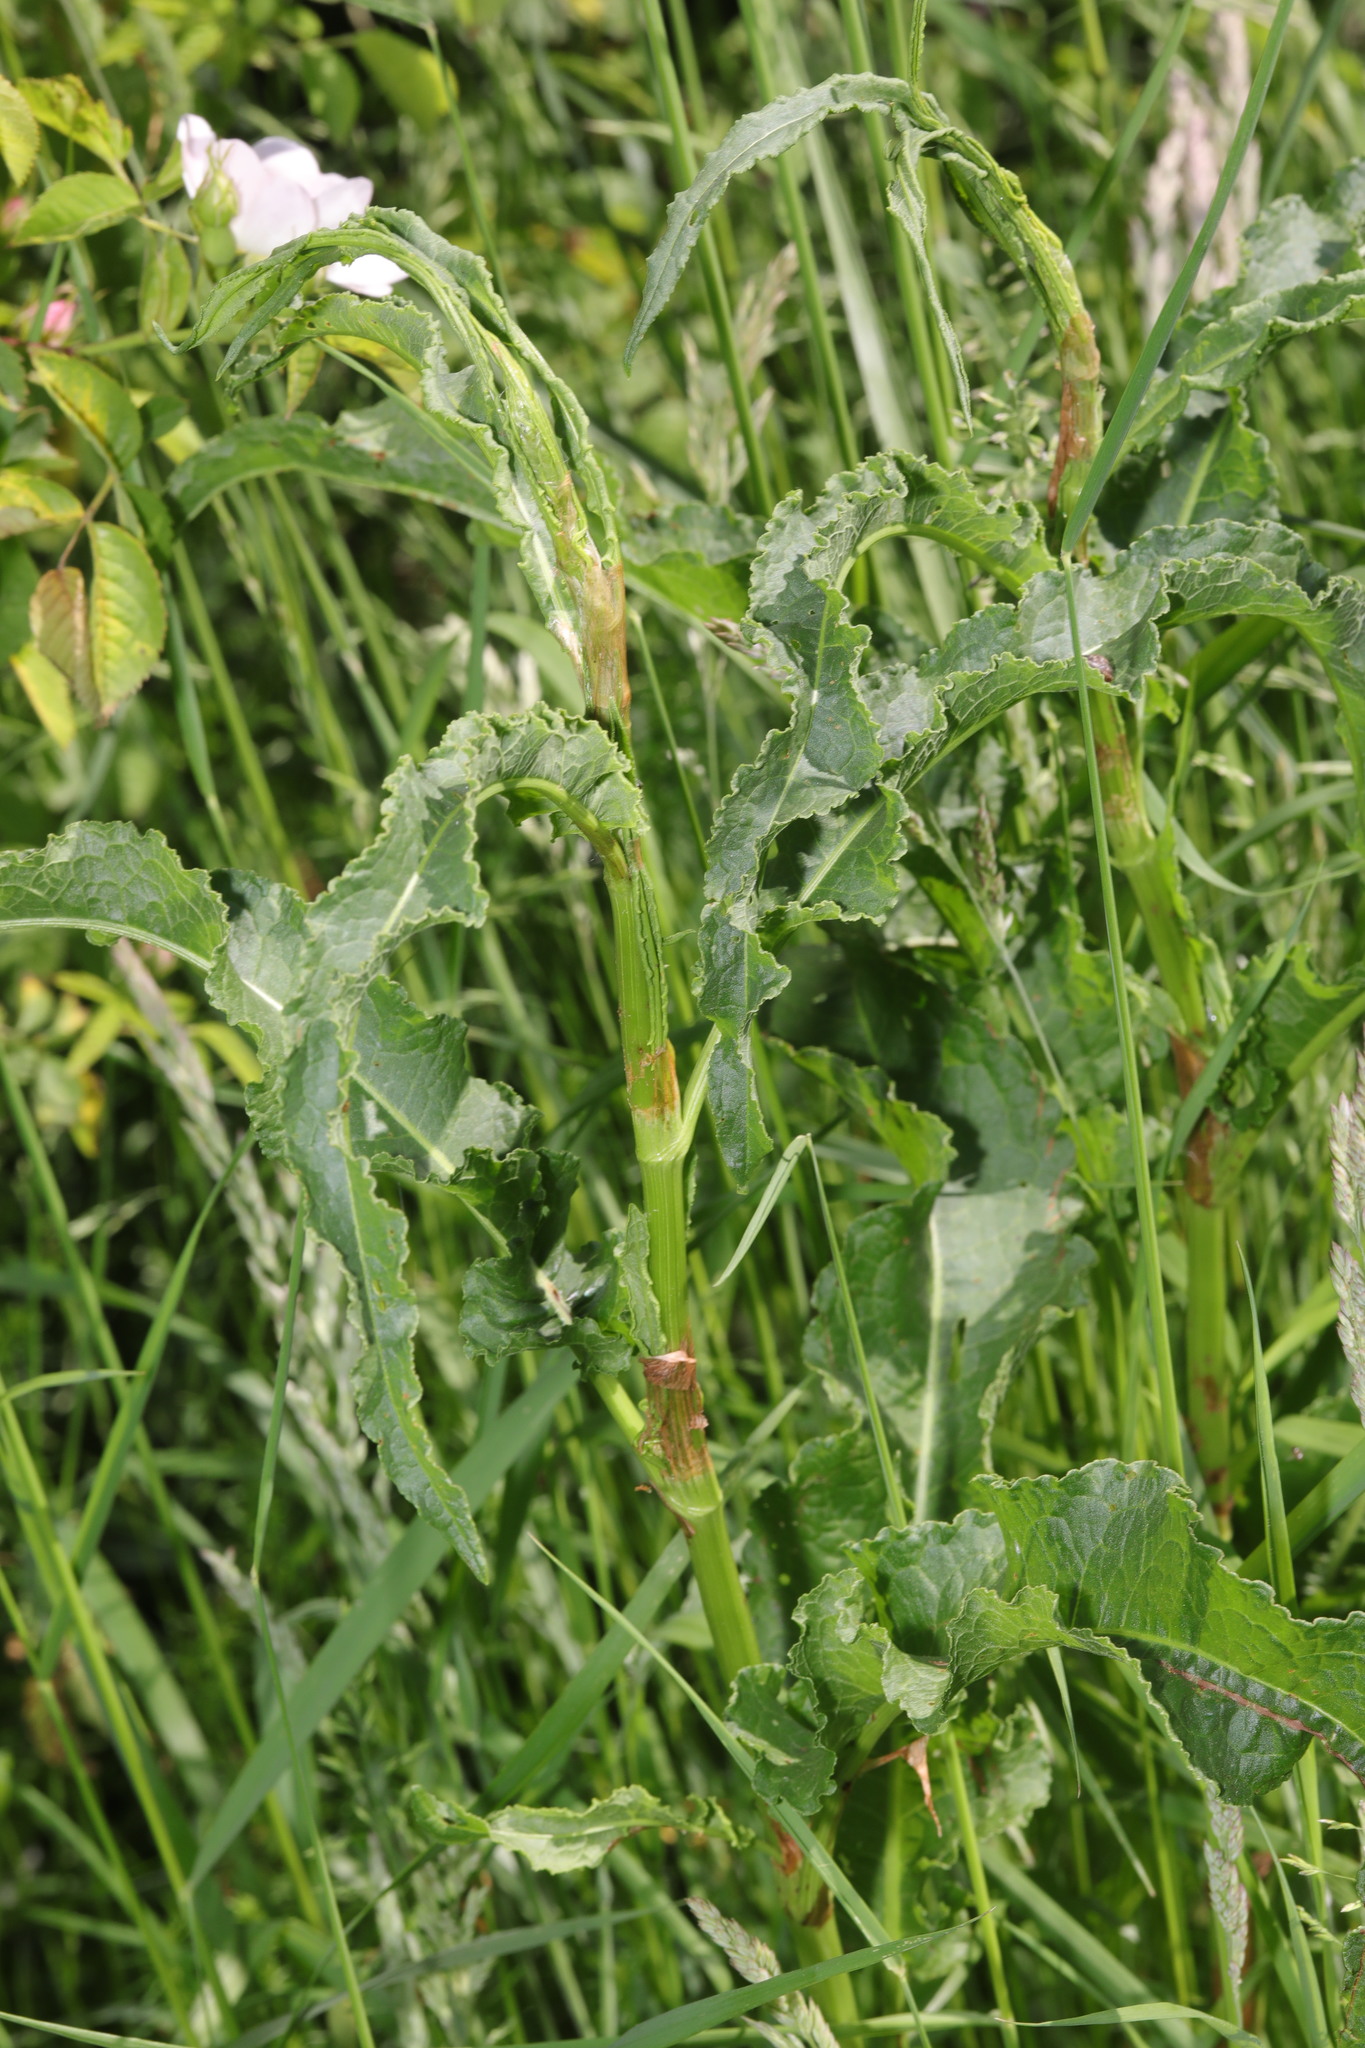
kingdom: Plantae
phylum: Tracheophyta
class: Magnoliopsida
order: Caryophyllales
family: Polygonaceae
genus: Rumex
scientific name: Rumex crispus
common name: Curled dock
